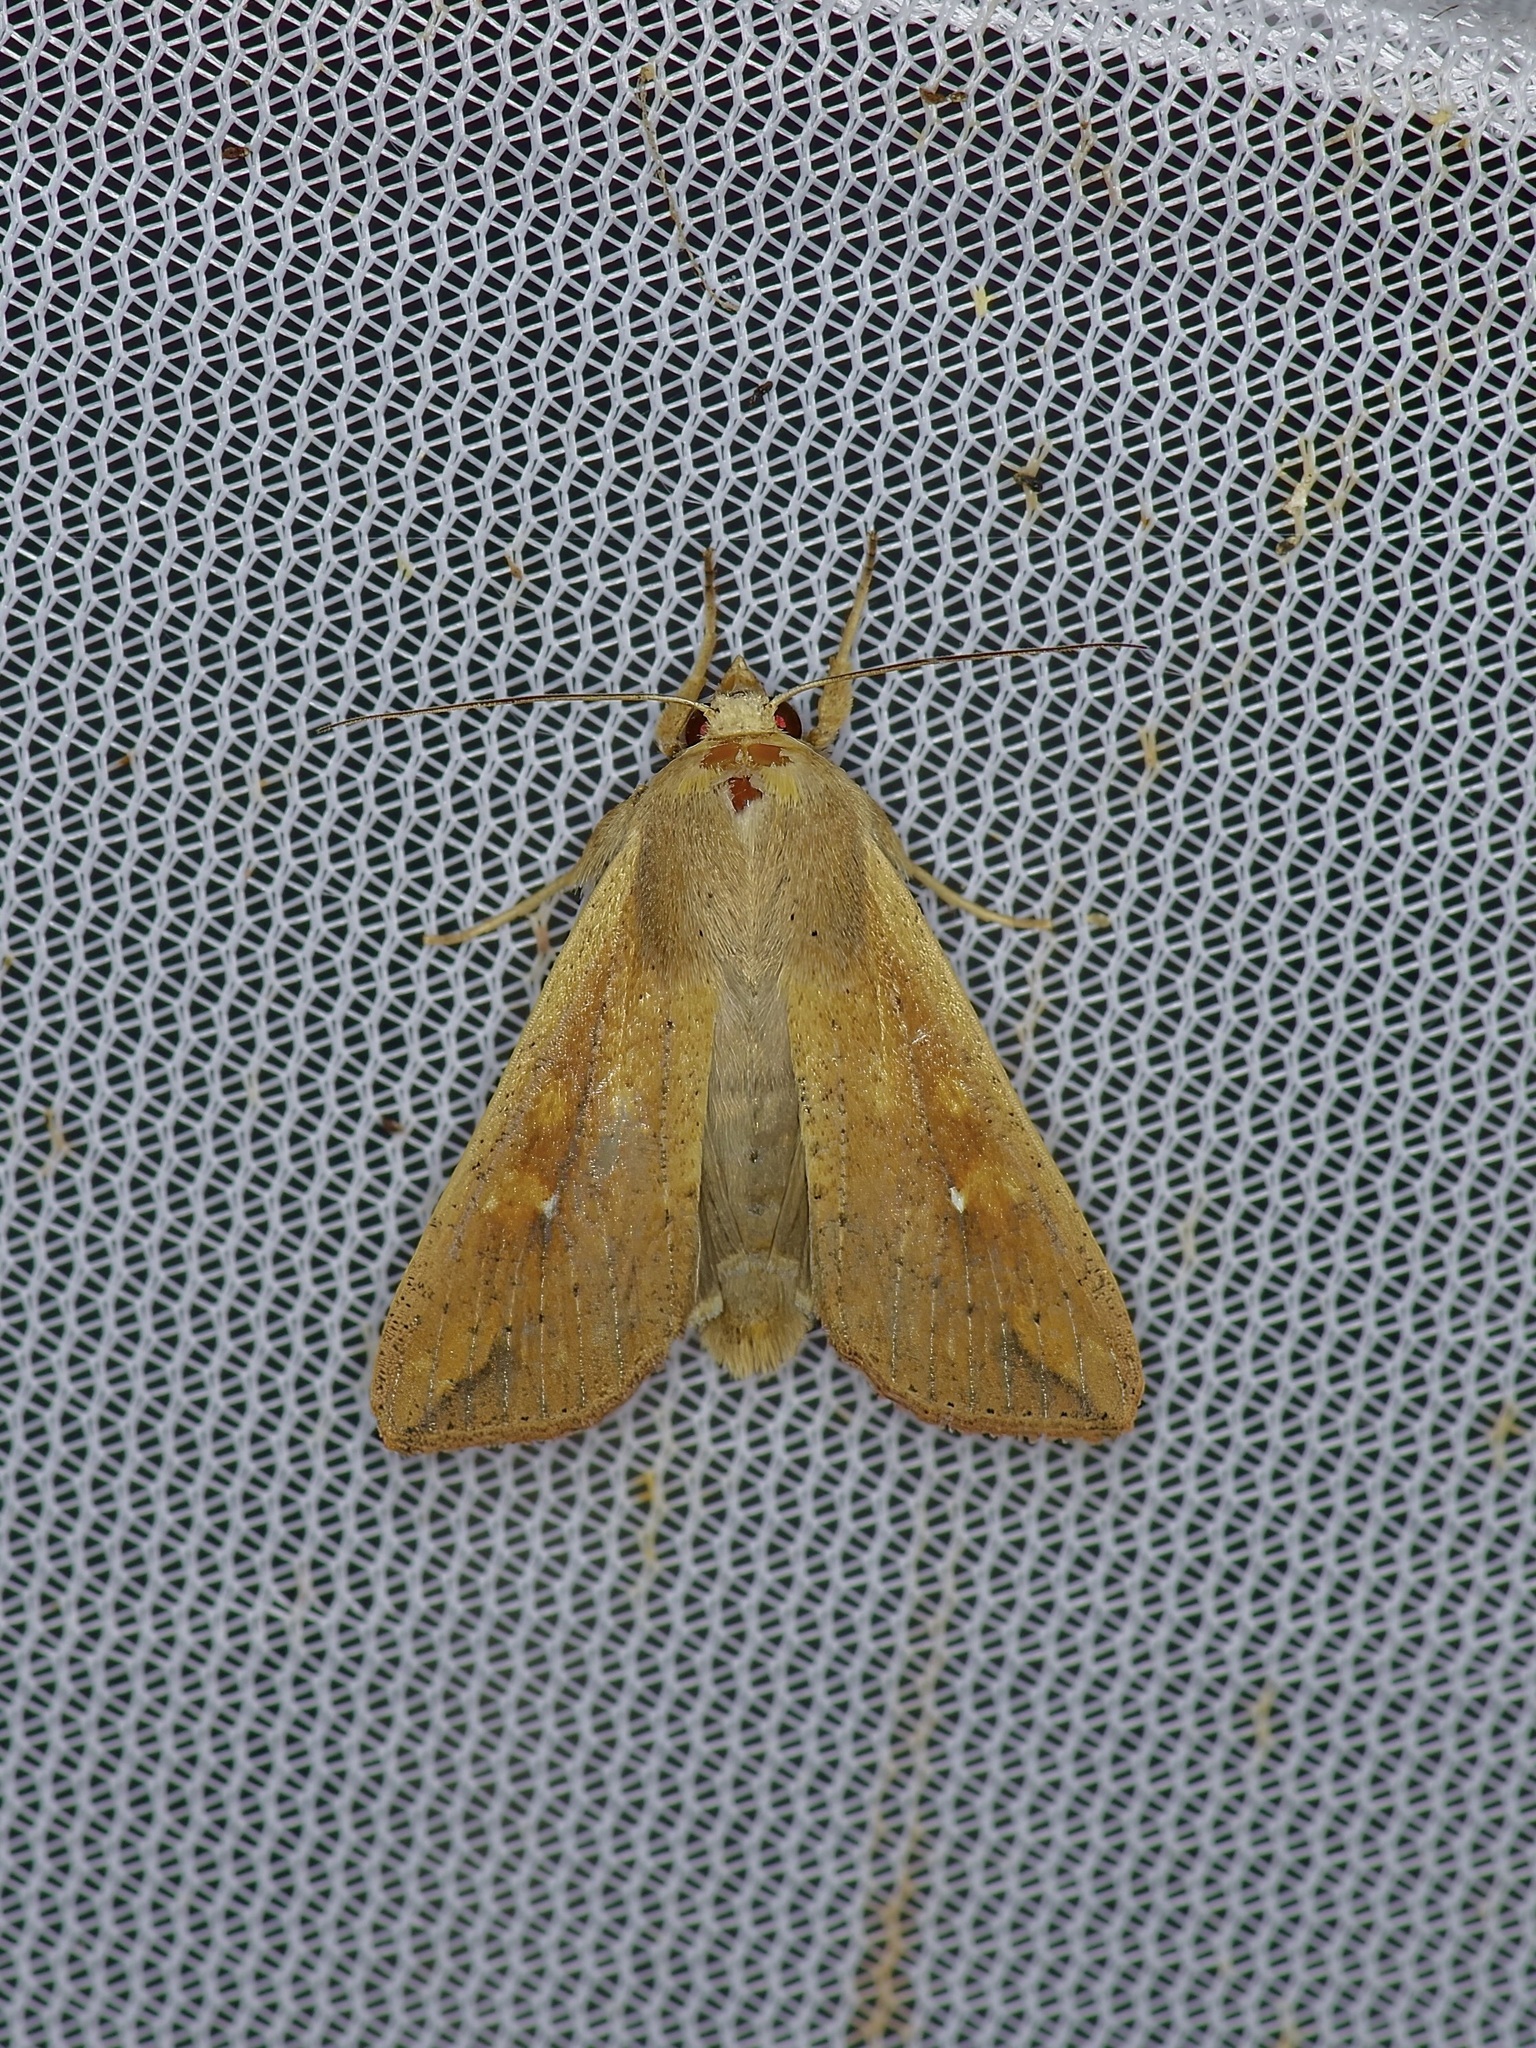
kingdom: Animalia
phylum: Arthropoda
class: Insecta
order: Lepidoptera
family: Noctuidae
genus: Mythimna
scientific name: Mythimna unipuncta
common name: White-speck
